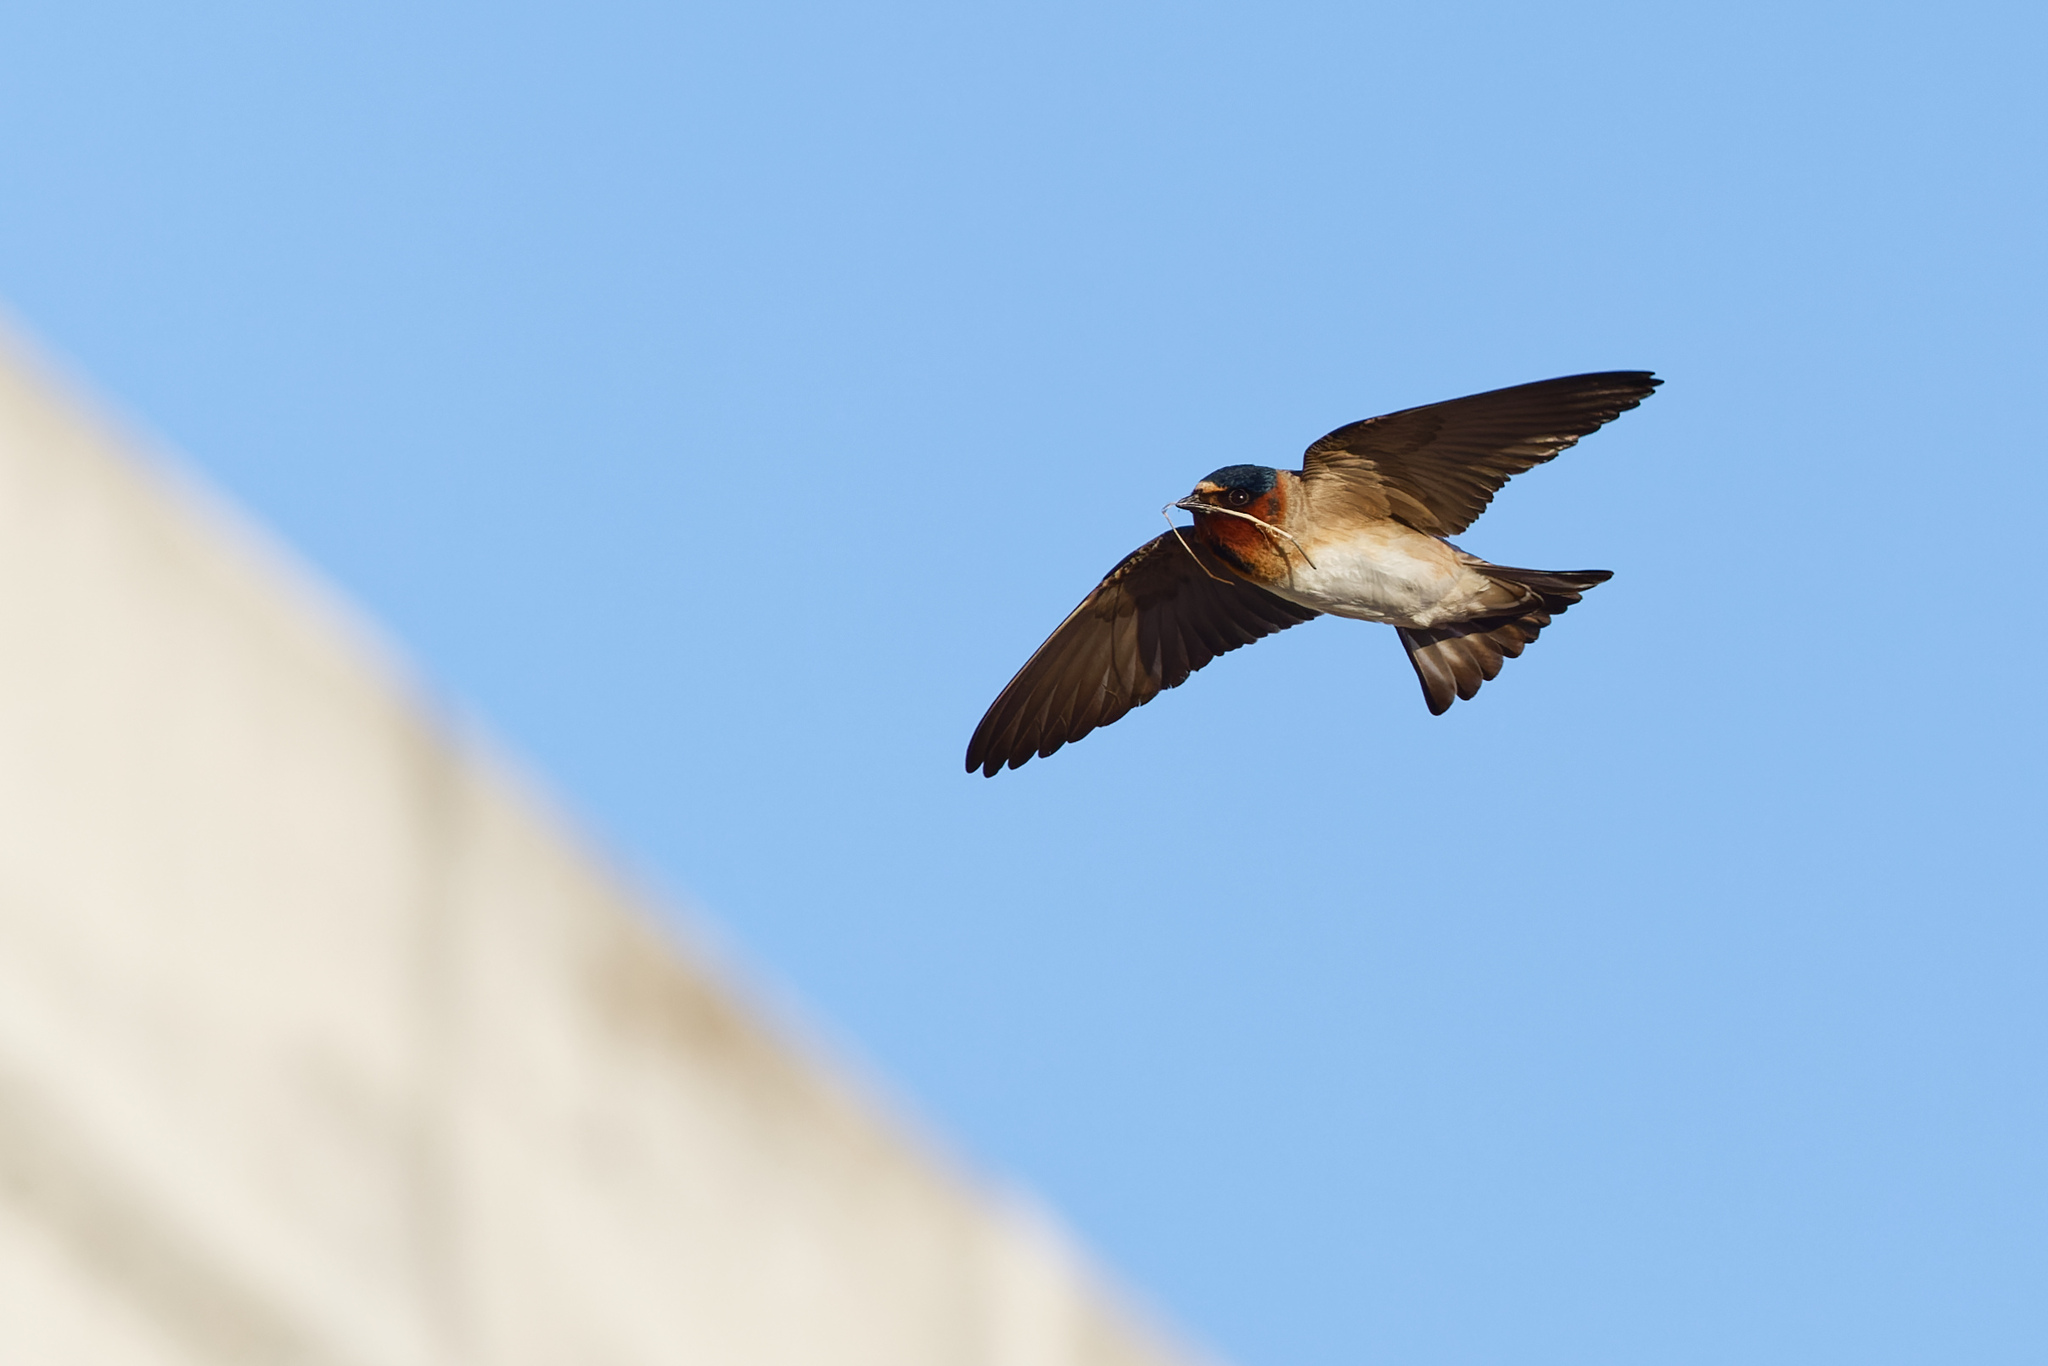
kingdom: Animalia
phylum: Chordata
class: Aves
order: Passeriformes
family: Hirundinidae
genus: Petrochelidon
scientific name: Petrochelidon pyrrhonota
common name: American cliff swallow
